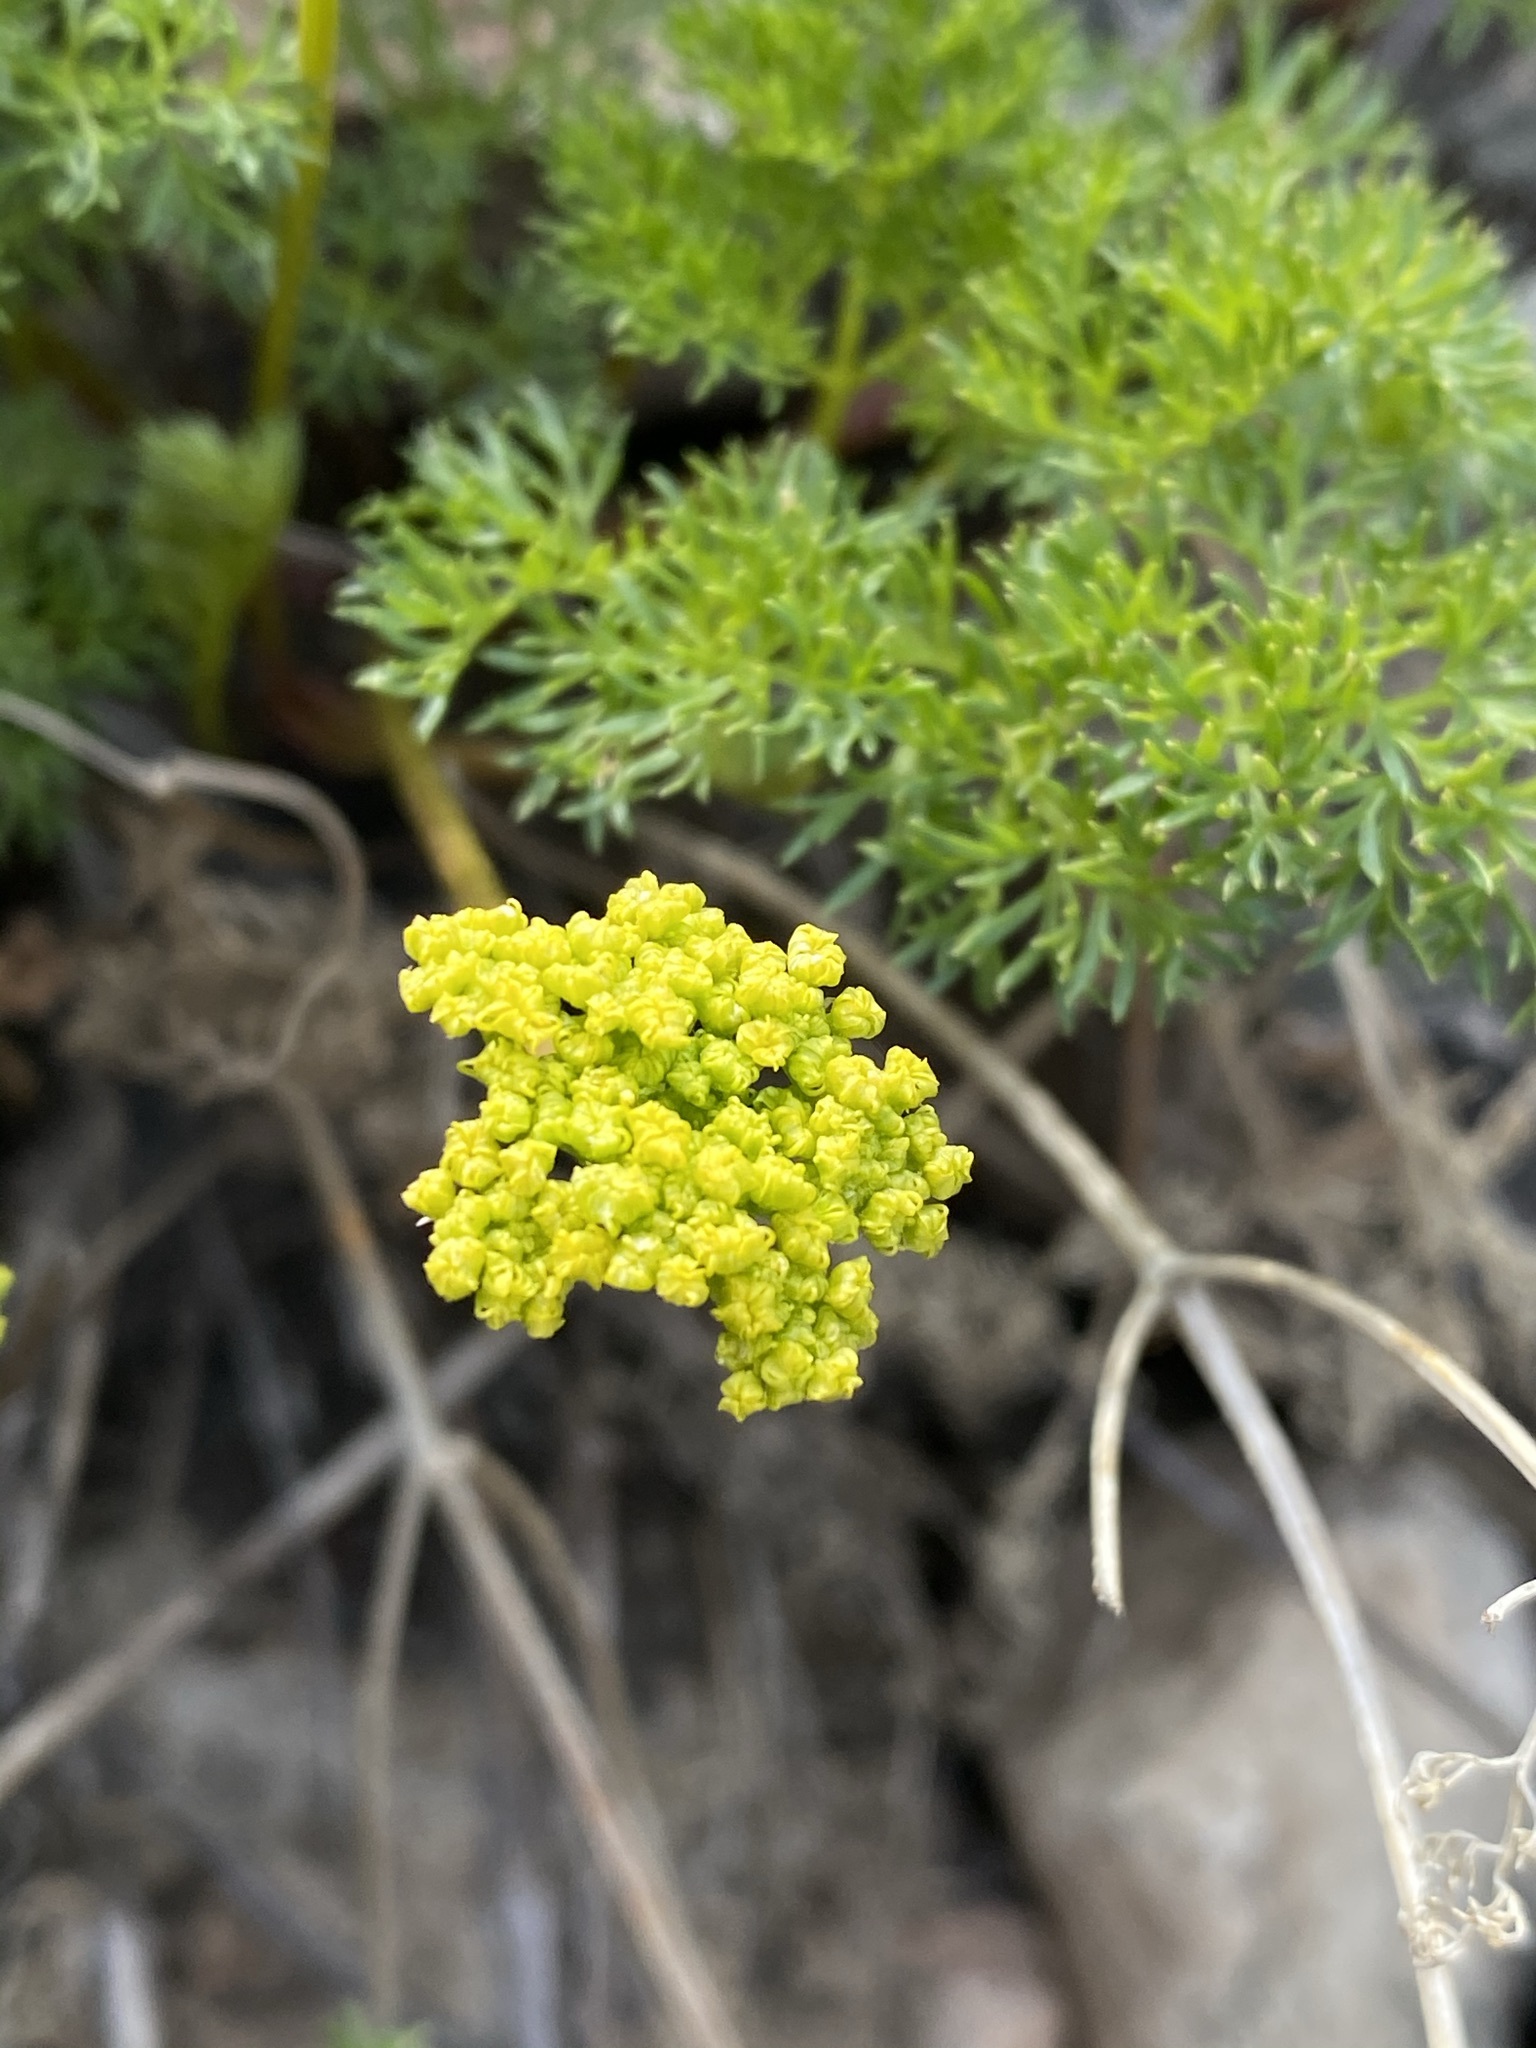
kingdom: Plantae
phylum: Tracheophyta
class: Magnoliopsida
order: Apiales
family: Apiaceae
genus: Pteryxia
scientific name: Pteryxia terebinthina
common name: Turpentine wavewing
